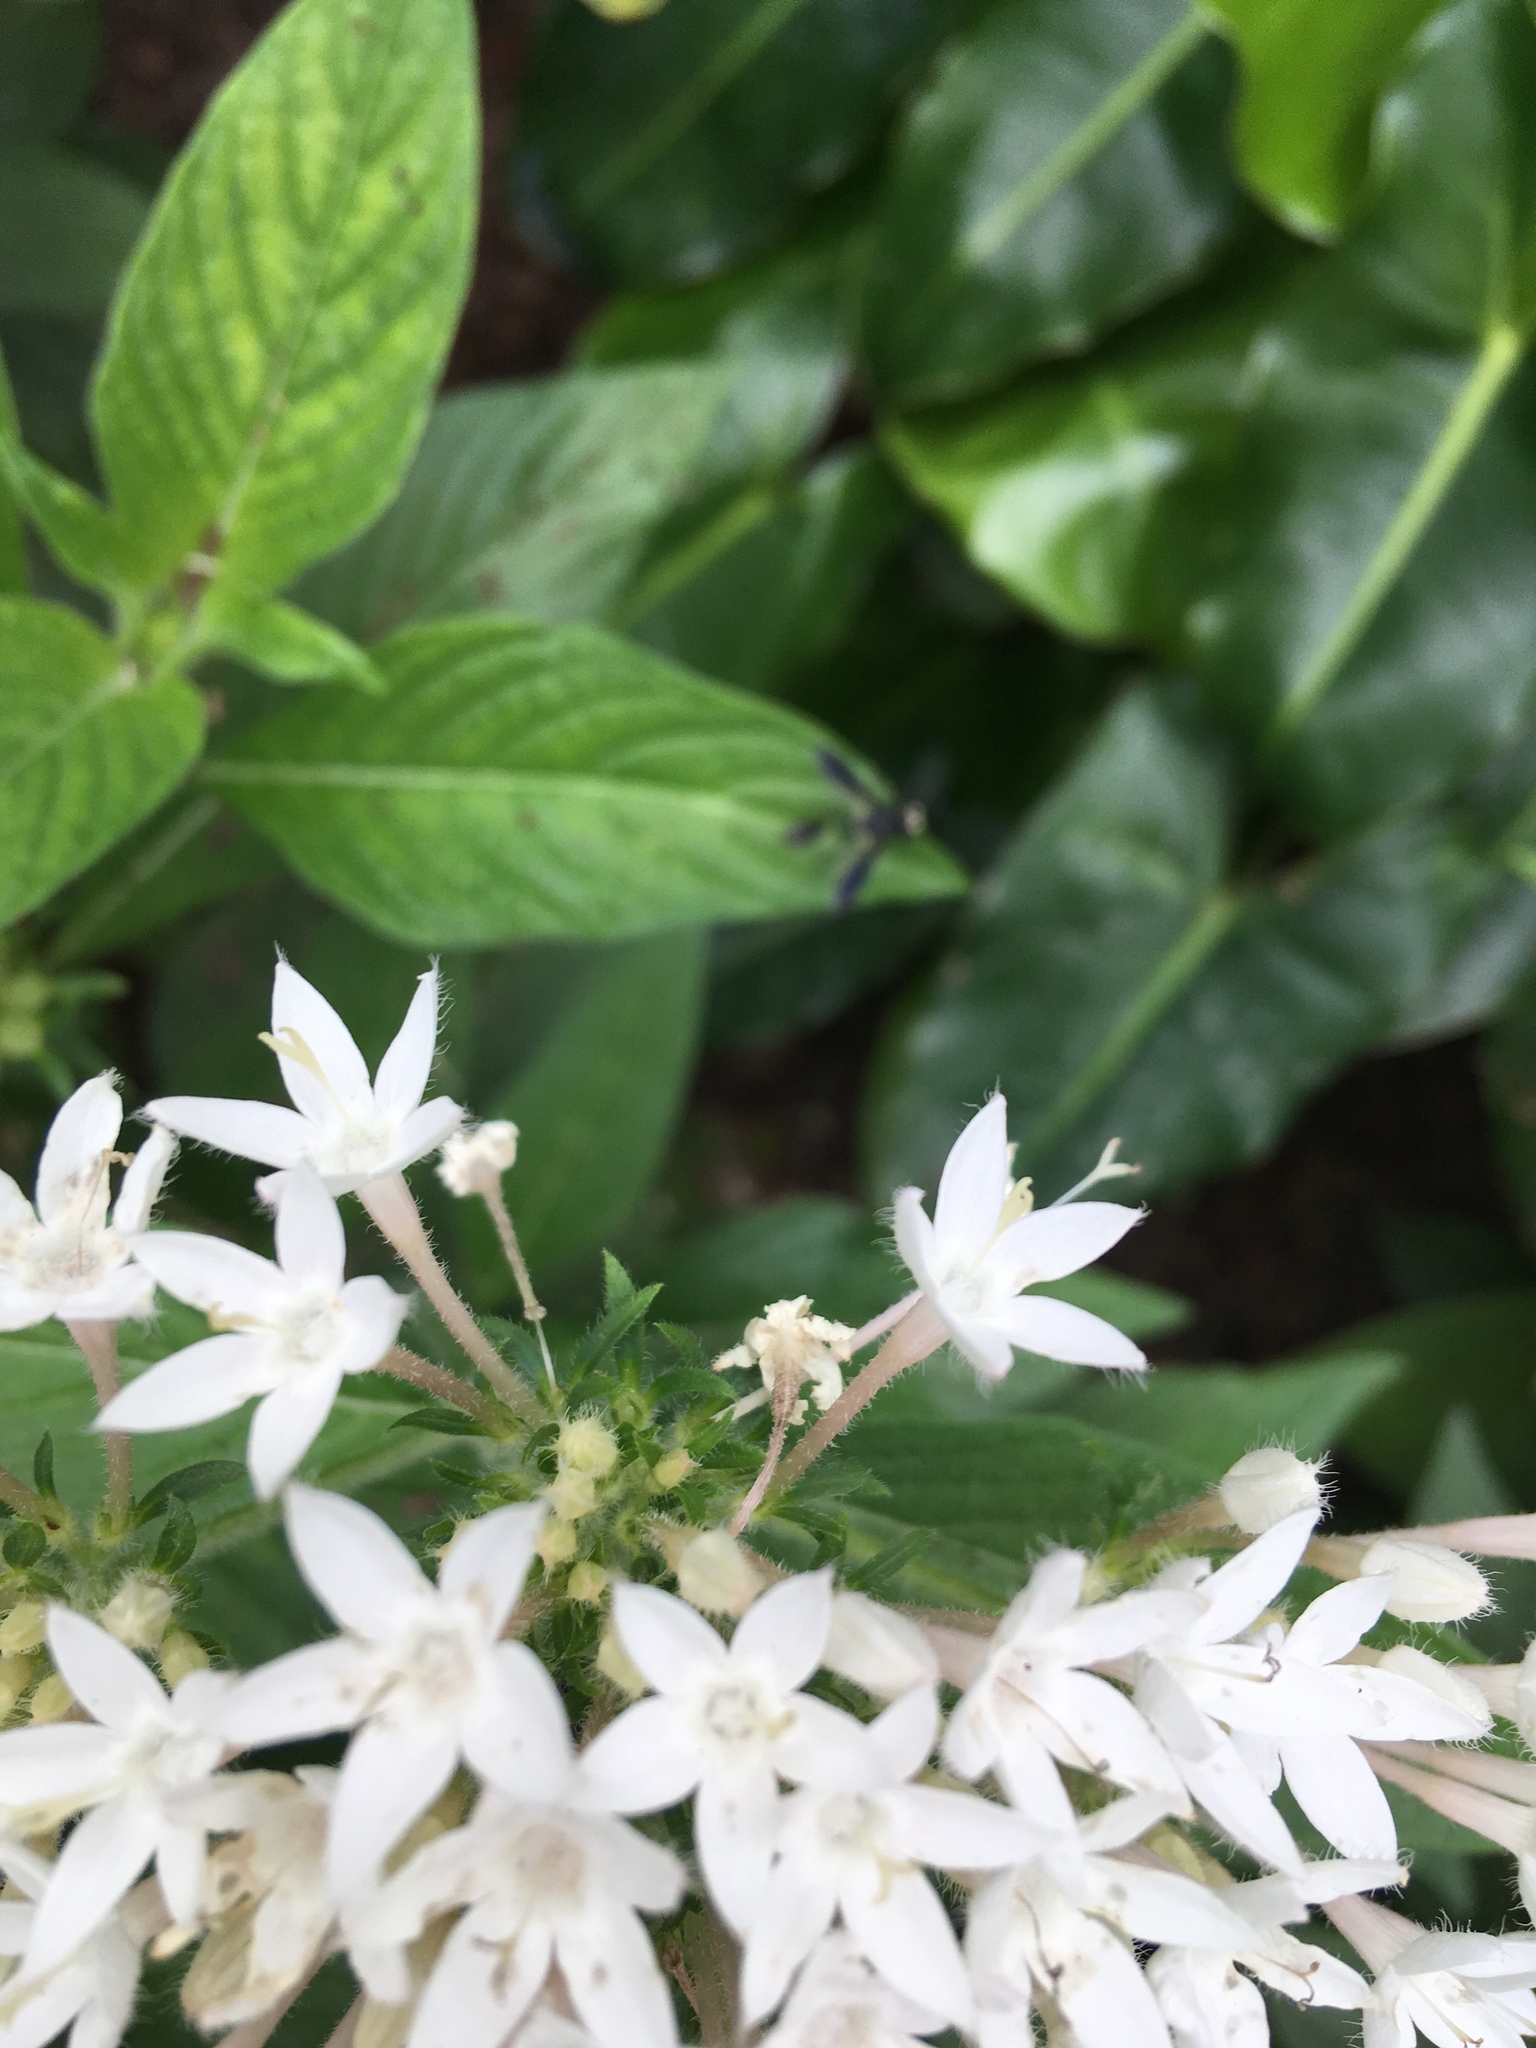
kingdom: Animalia
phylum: Arthropoda
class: Insecta
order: Diptera
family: Conopidae
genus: Physocephala
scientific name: Physocephala tibialis
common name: Common eastern physocephala
